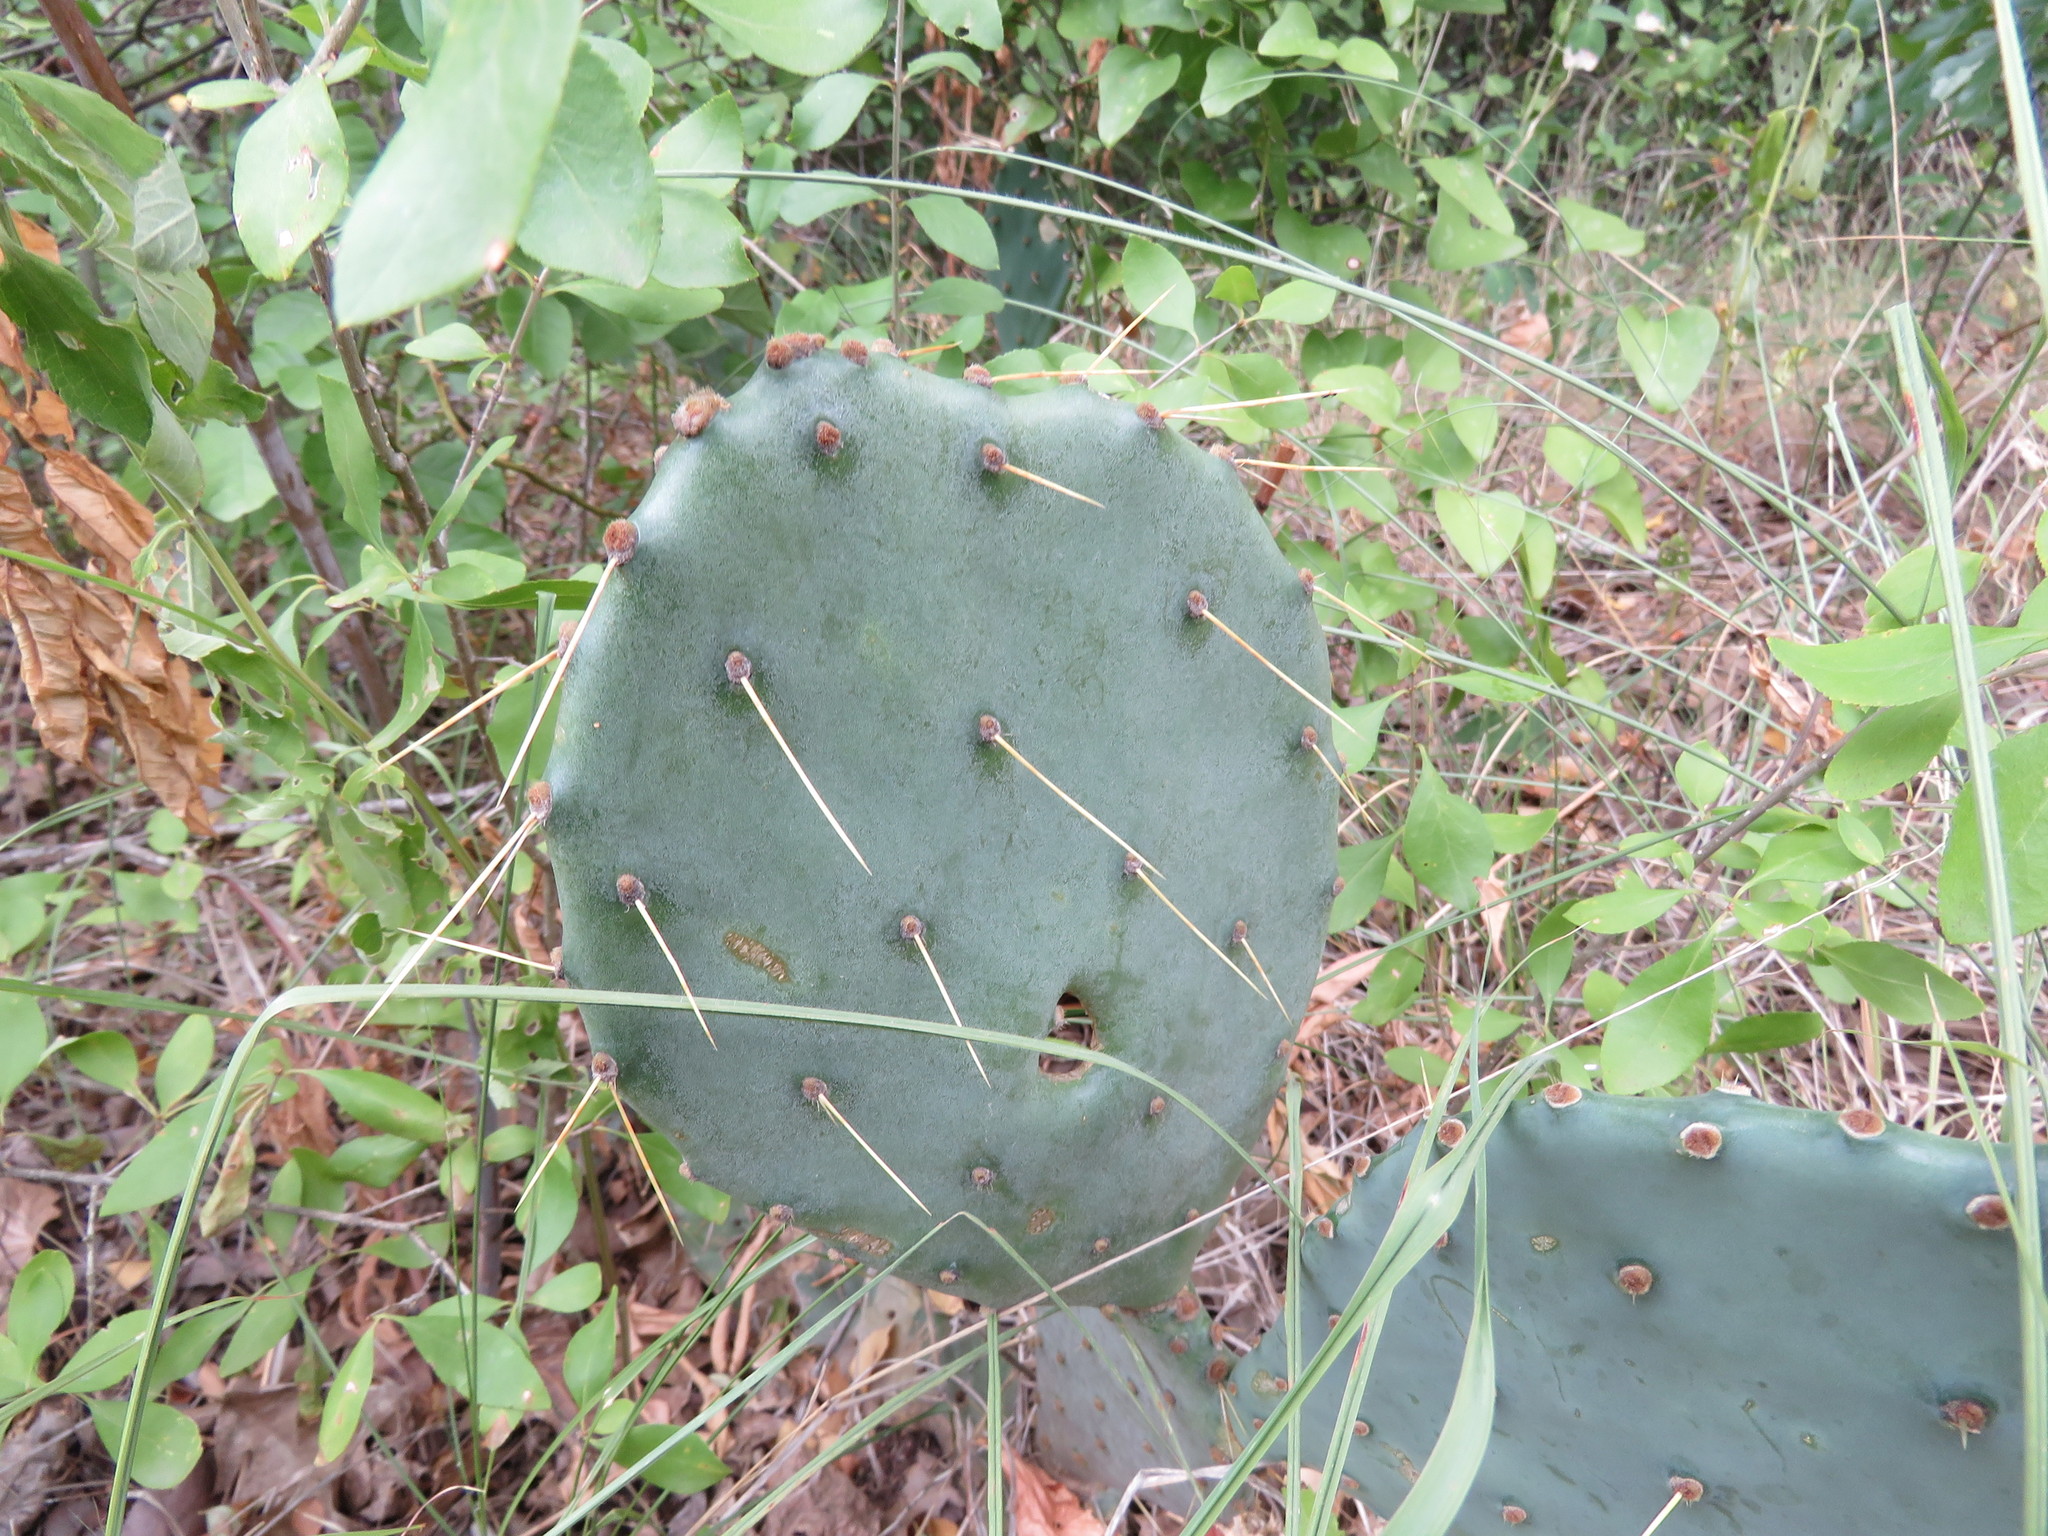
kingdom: Plantae
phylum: Tracheophyta
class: Magnoliopsida
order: Caryophyllales
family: Cactaceae
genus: Opuntia
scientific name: Opuntia engelmannii
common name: Cactus-apple
